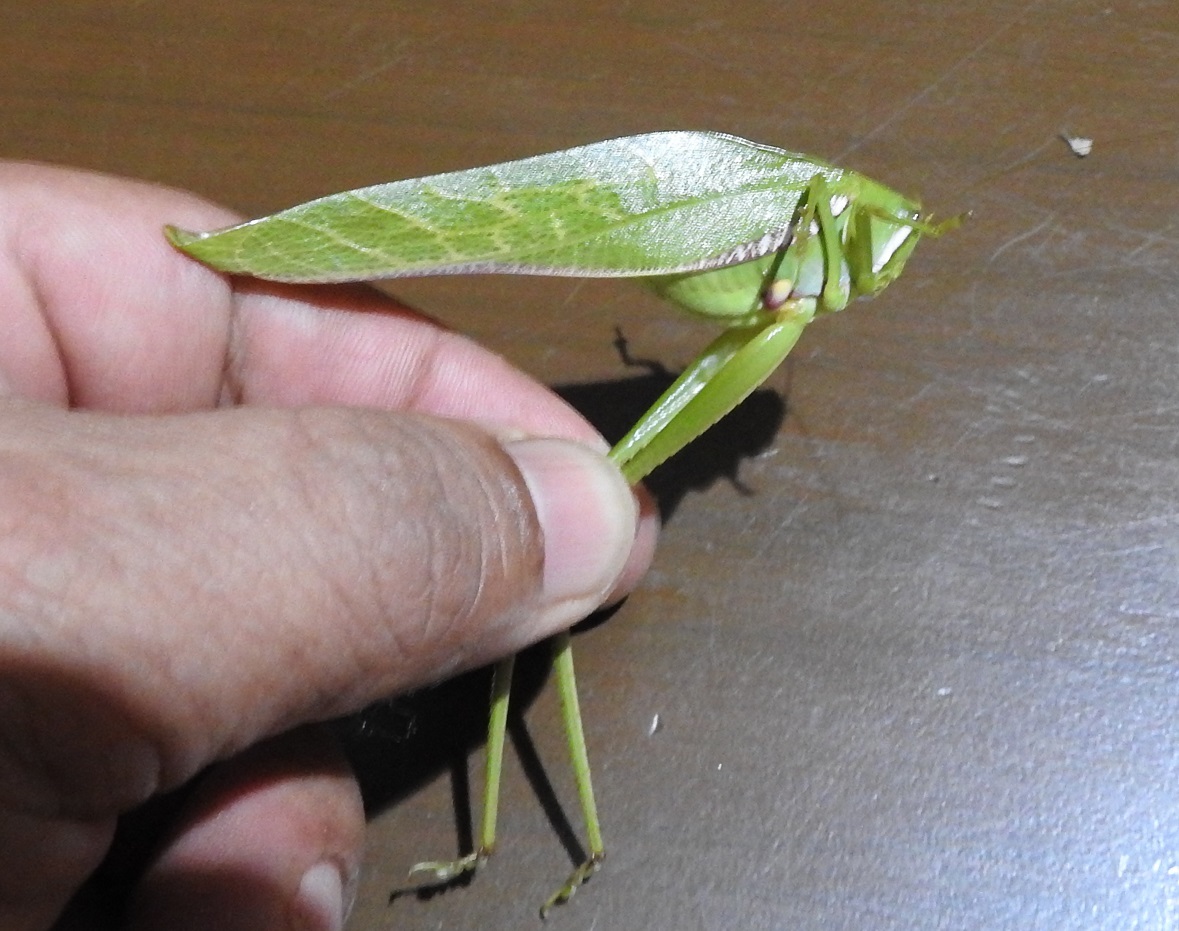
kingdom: Animalia
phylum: Arthropoda
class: Insecta
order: Orthoptera
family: Tettigoniidae
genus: Philophyllia
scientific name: Philophyllia guttulata
